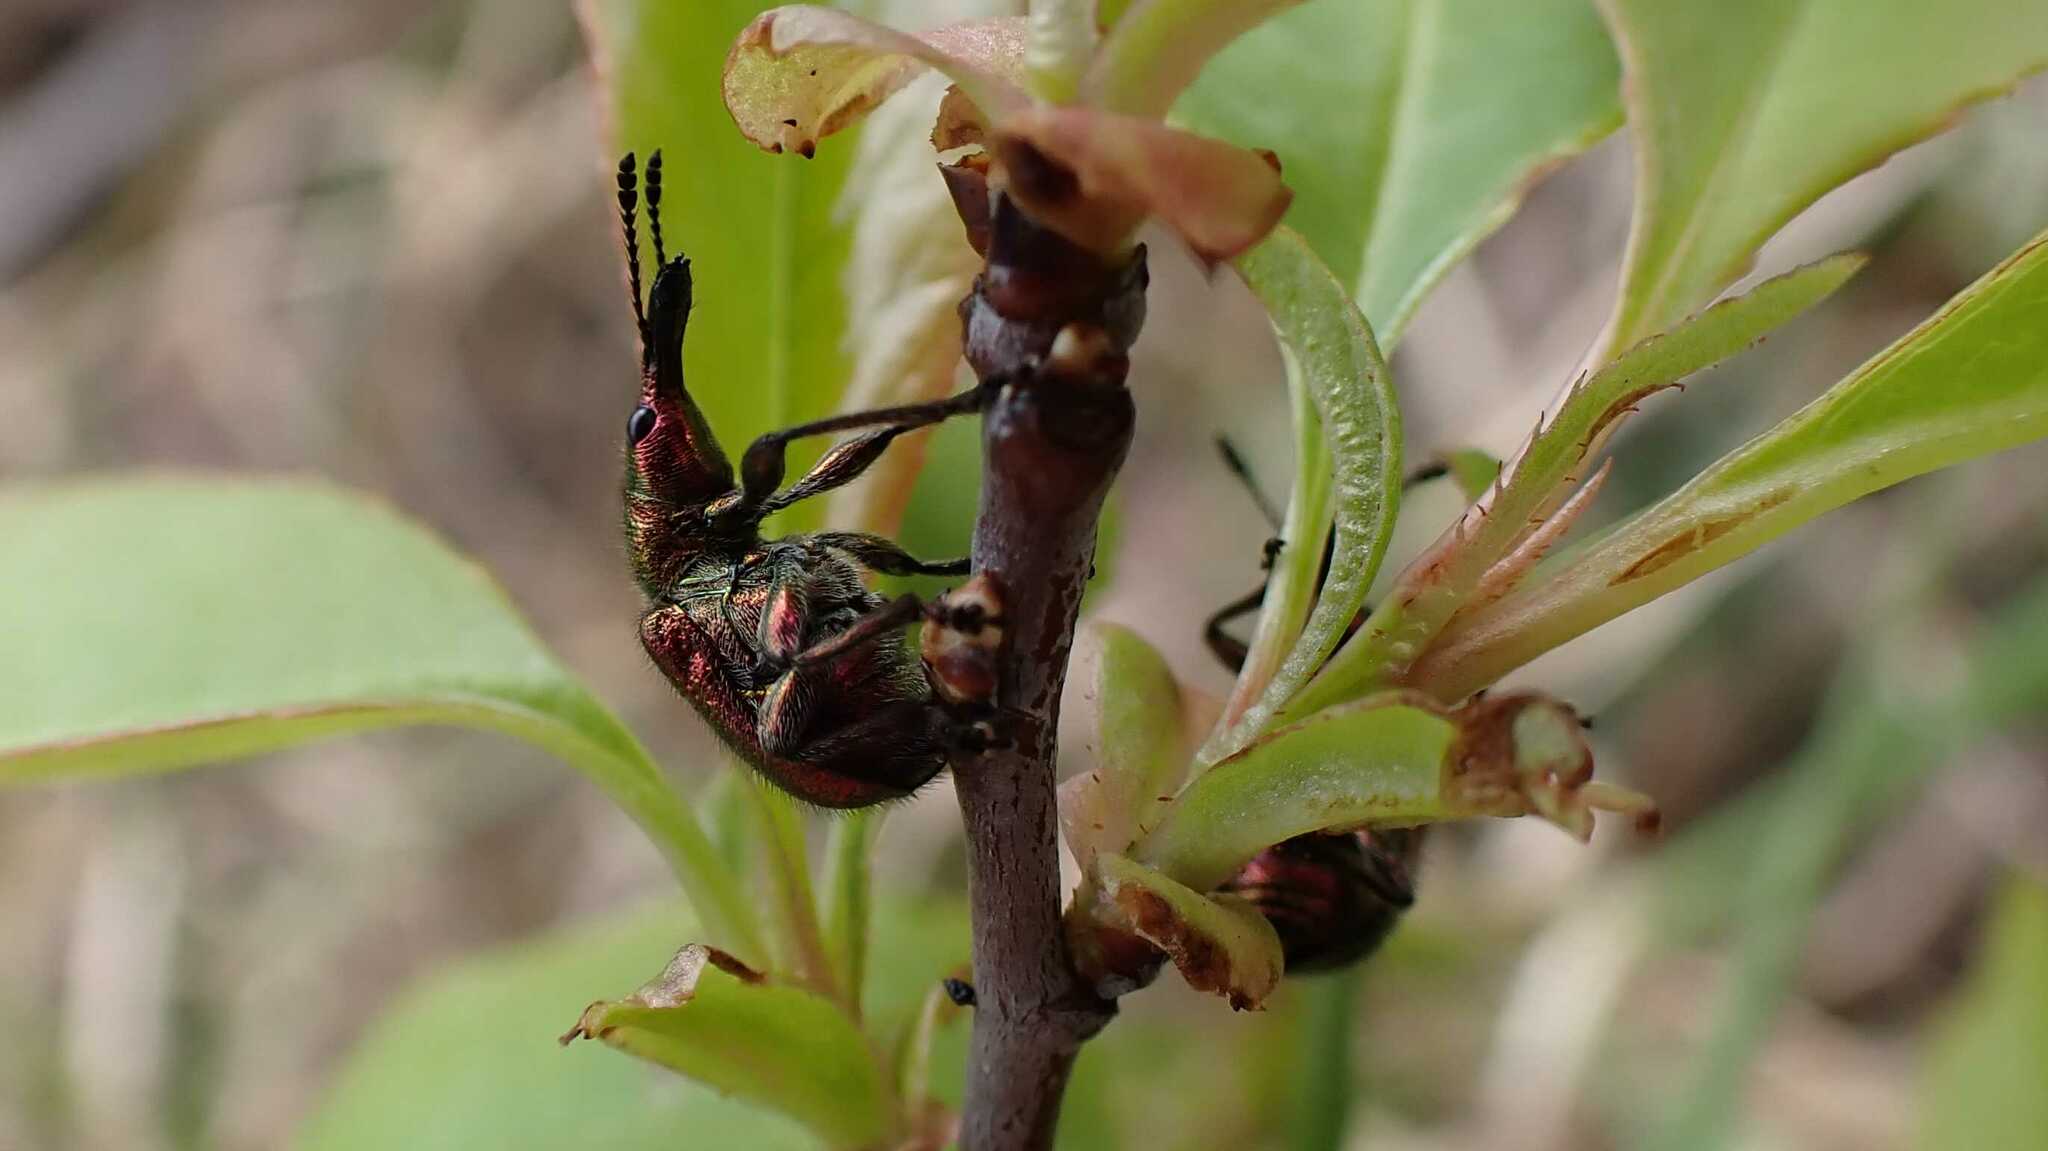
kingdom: Animalia
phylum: Arthropoda
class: Insecta
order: Coleoptera
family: Attelabidae
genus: Rhynchites
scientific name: Rhynchites auratus
